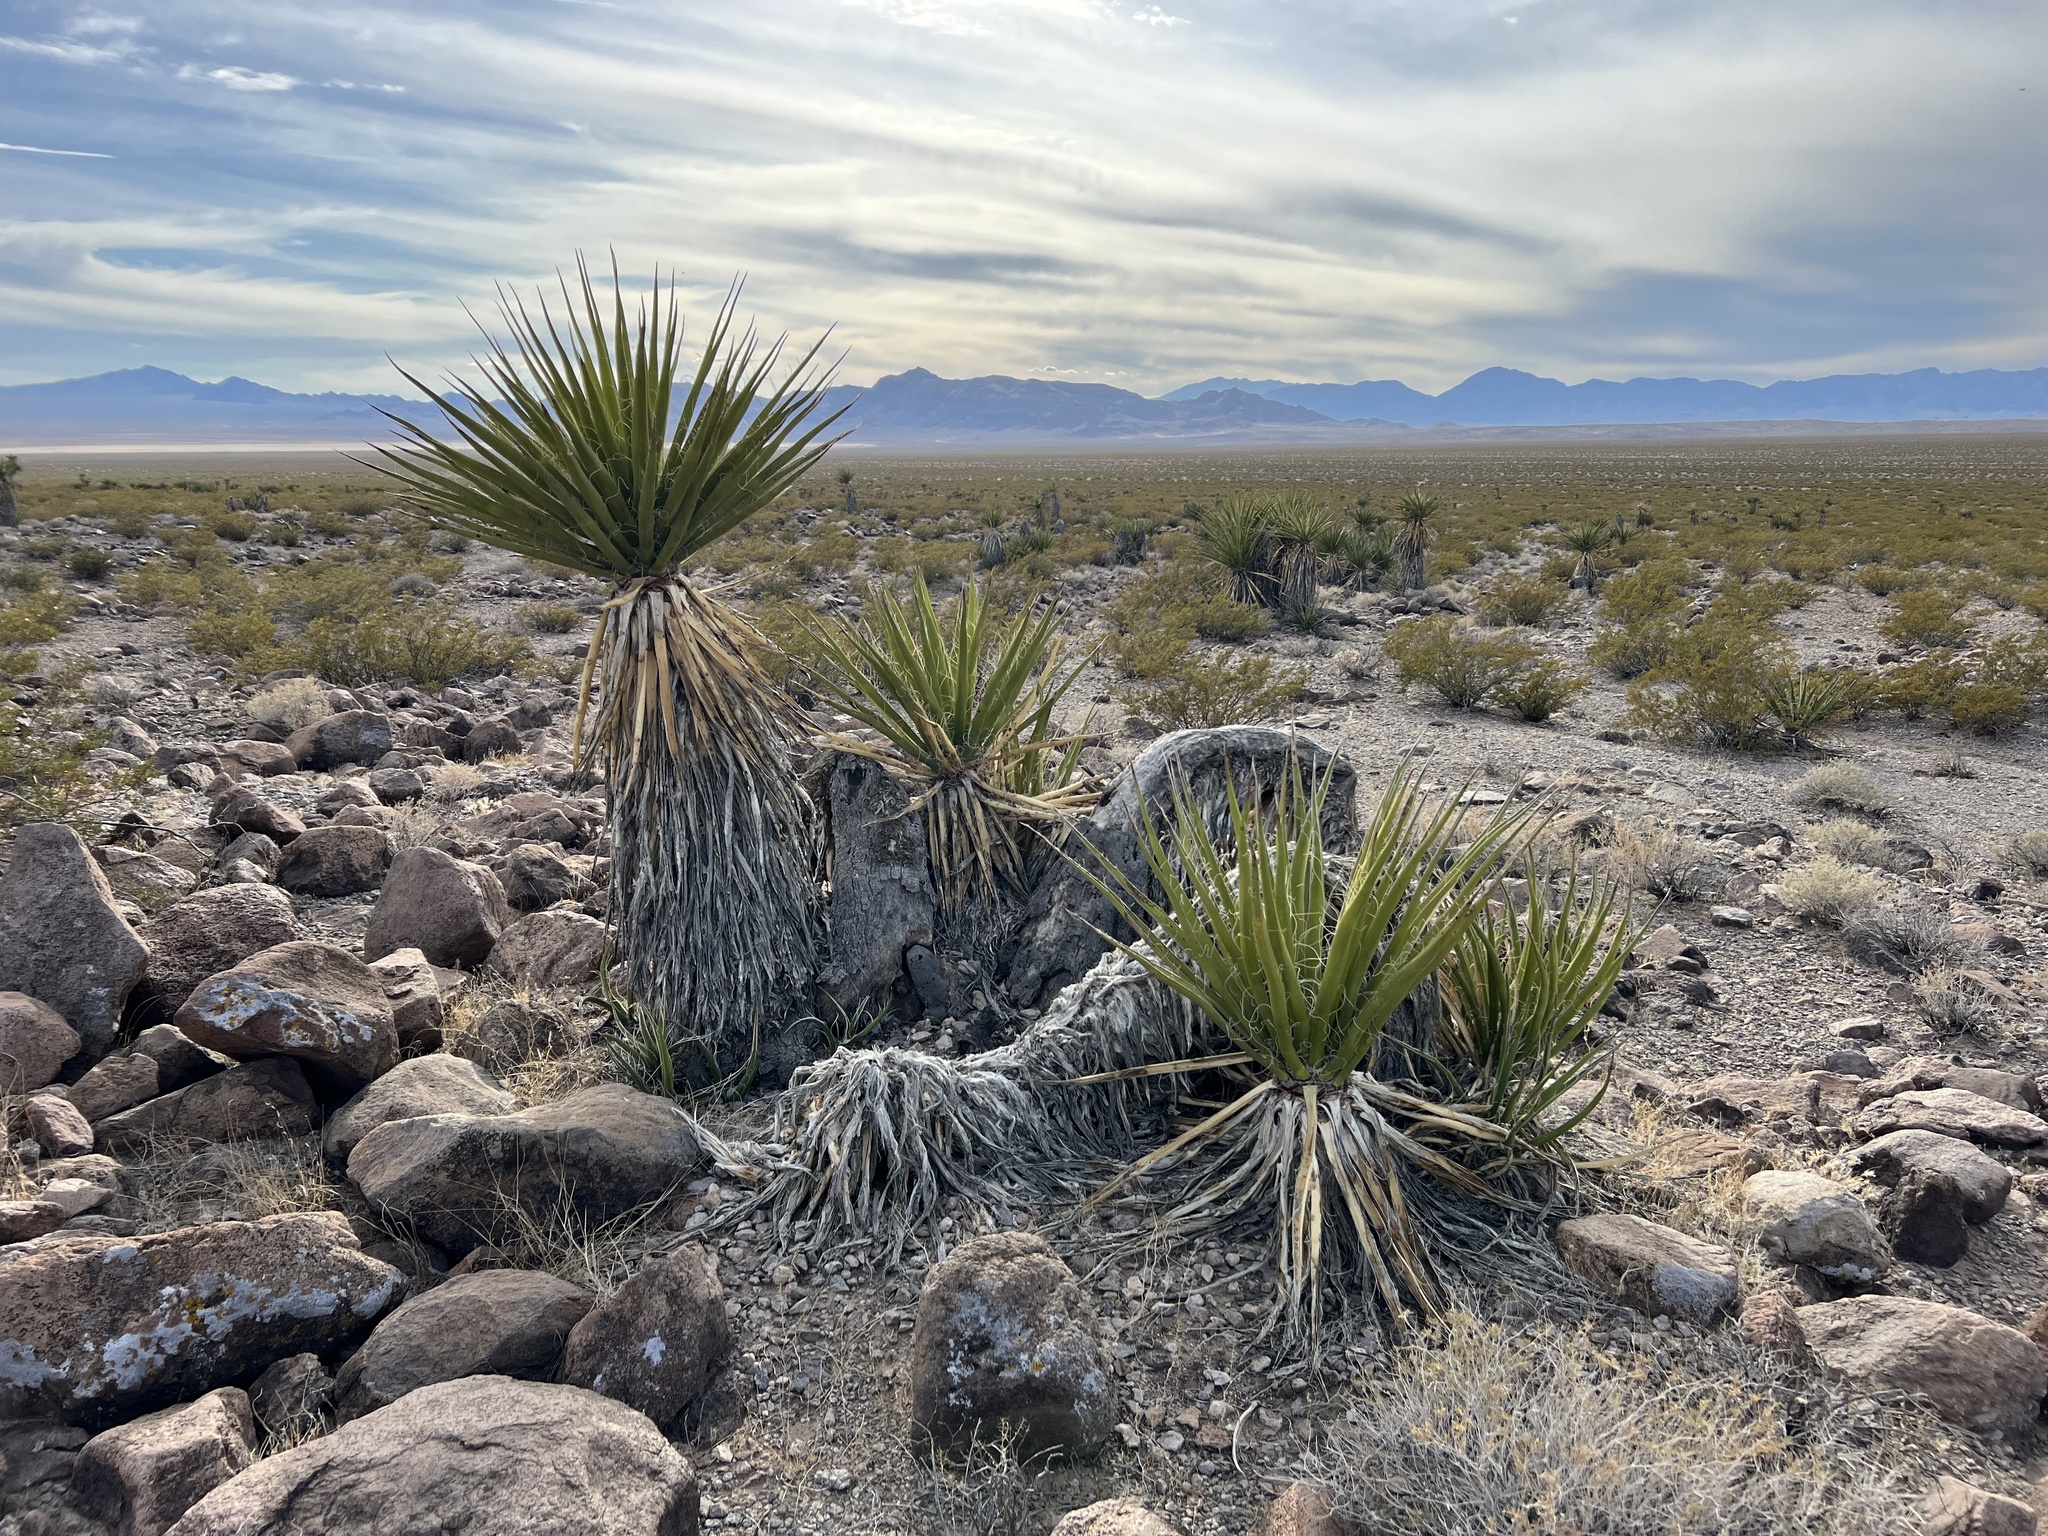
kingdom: Plantae
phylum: Tracheophyta
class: Liliopsida
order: Asparagales
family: Asparagaceae
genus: Yucca
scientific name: Yucca schidigera
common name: Mojave yucca
